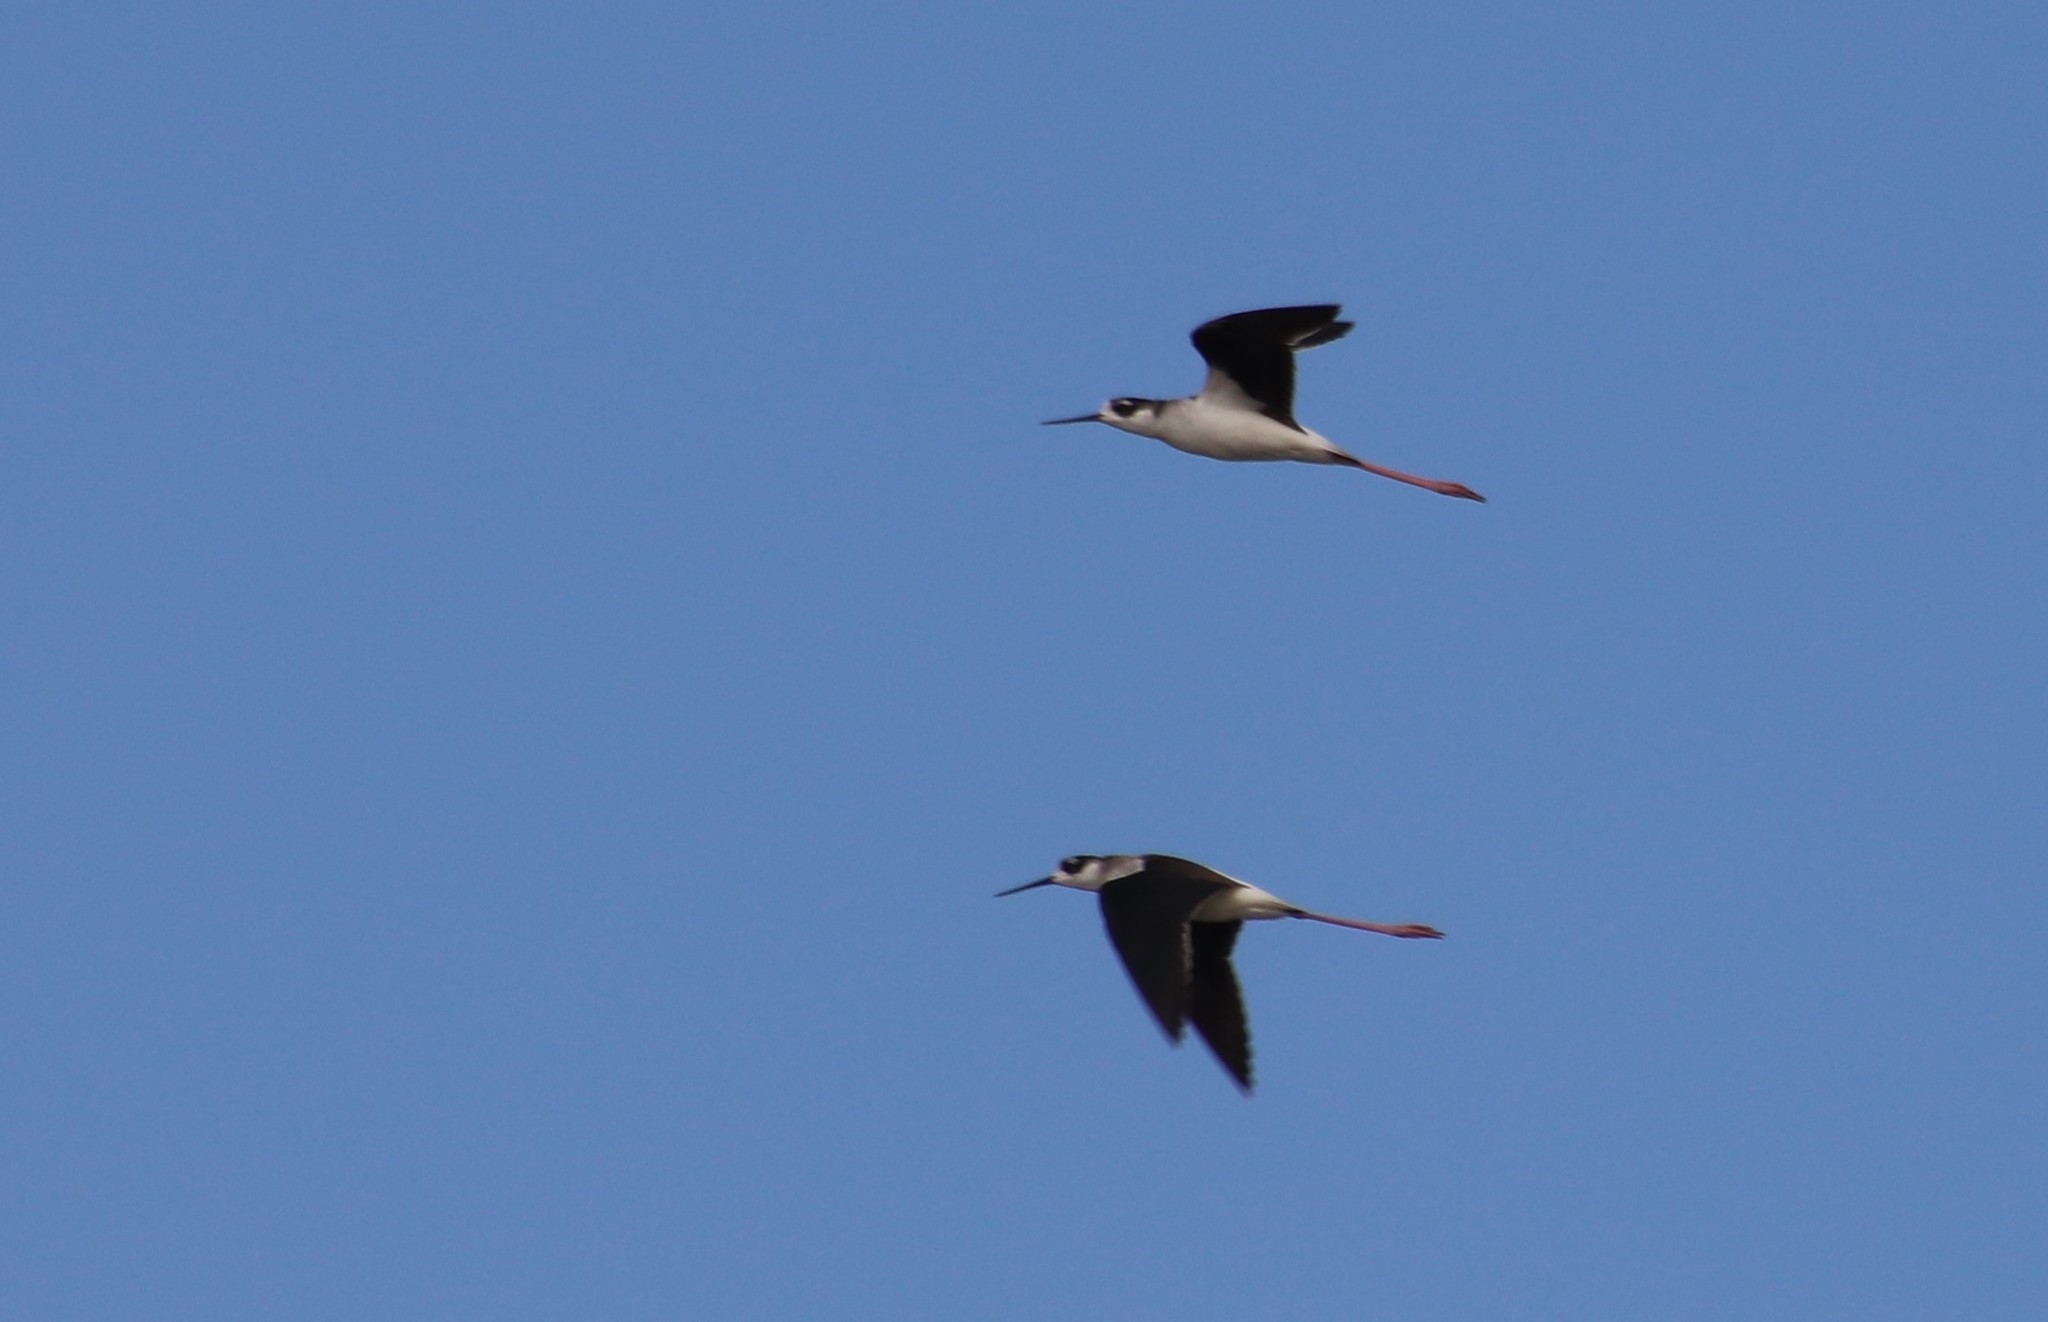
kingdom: Animalia
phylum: Chordata
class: Aves
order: Charadriiformes
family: Recurvirostridae
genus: Himantopus
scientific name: Himantopus mexicanus
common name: Black-necked stilt
